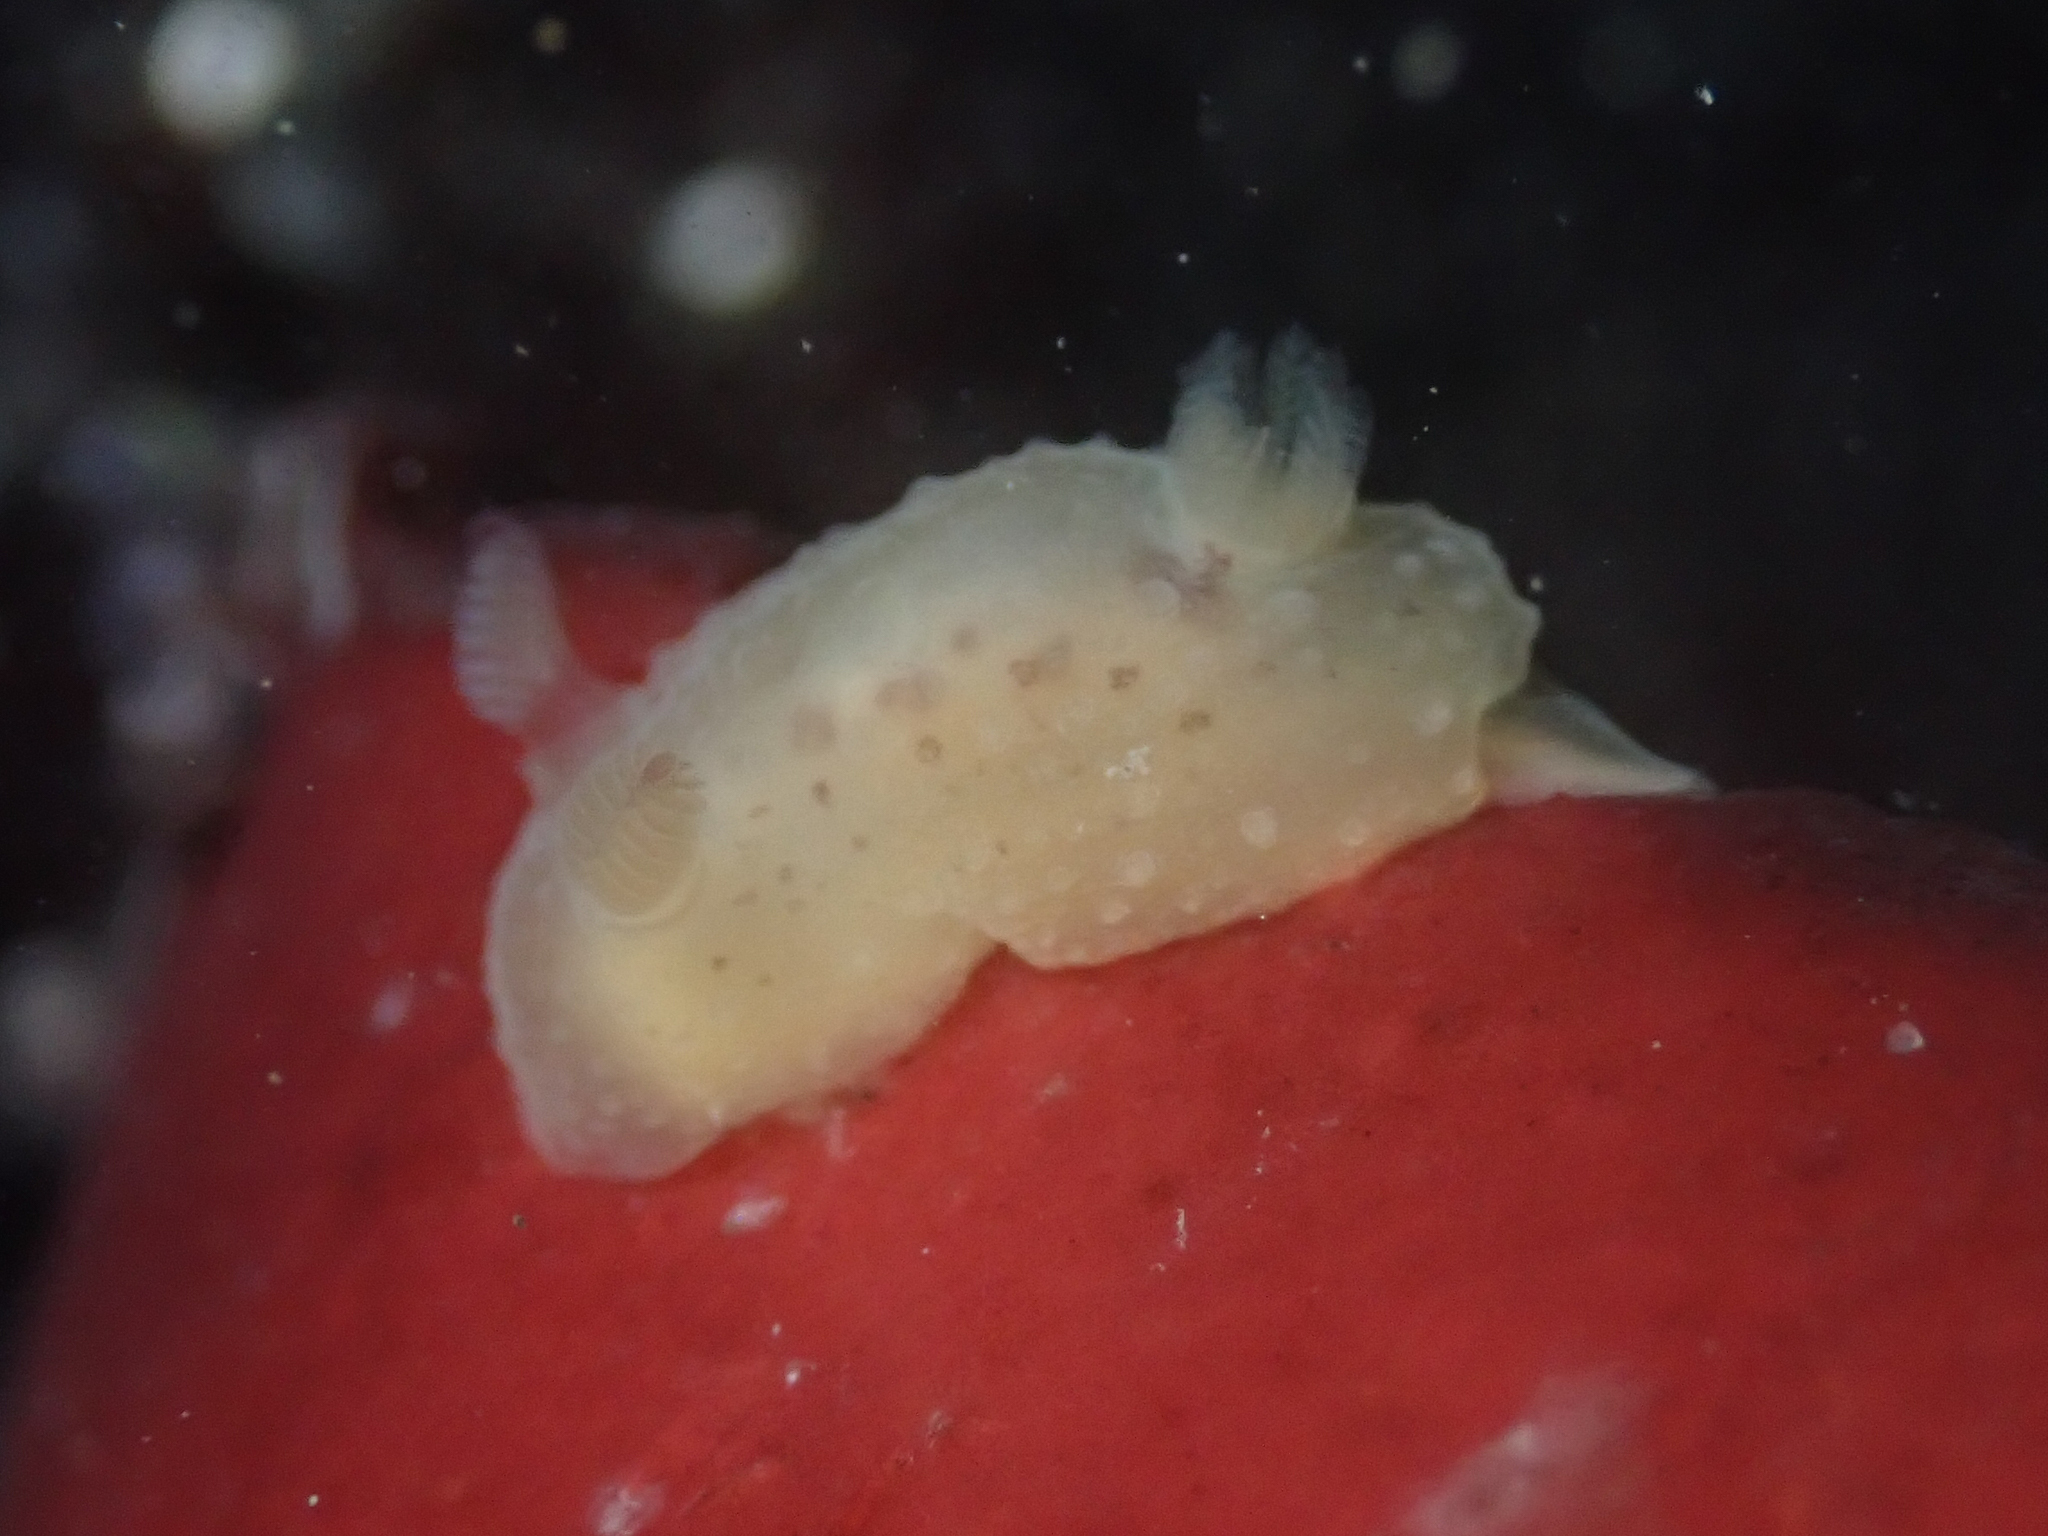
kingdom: Animalia
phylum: Mollusca
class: Gastropoda
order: Nudibranchia
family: Actinocyclidae
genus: Hallaxa
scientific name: Hallaxa chani
